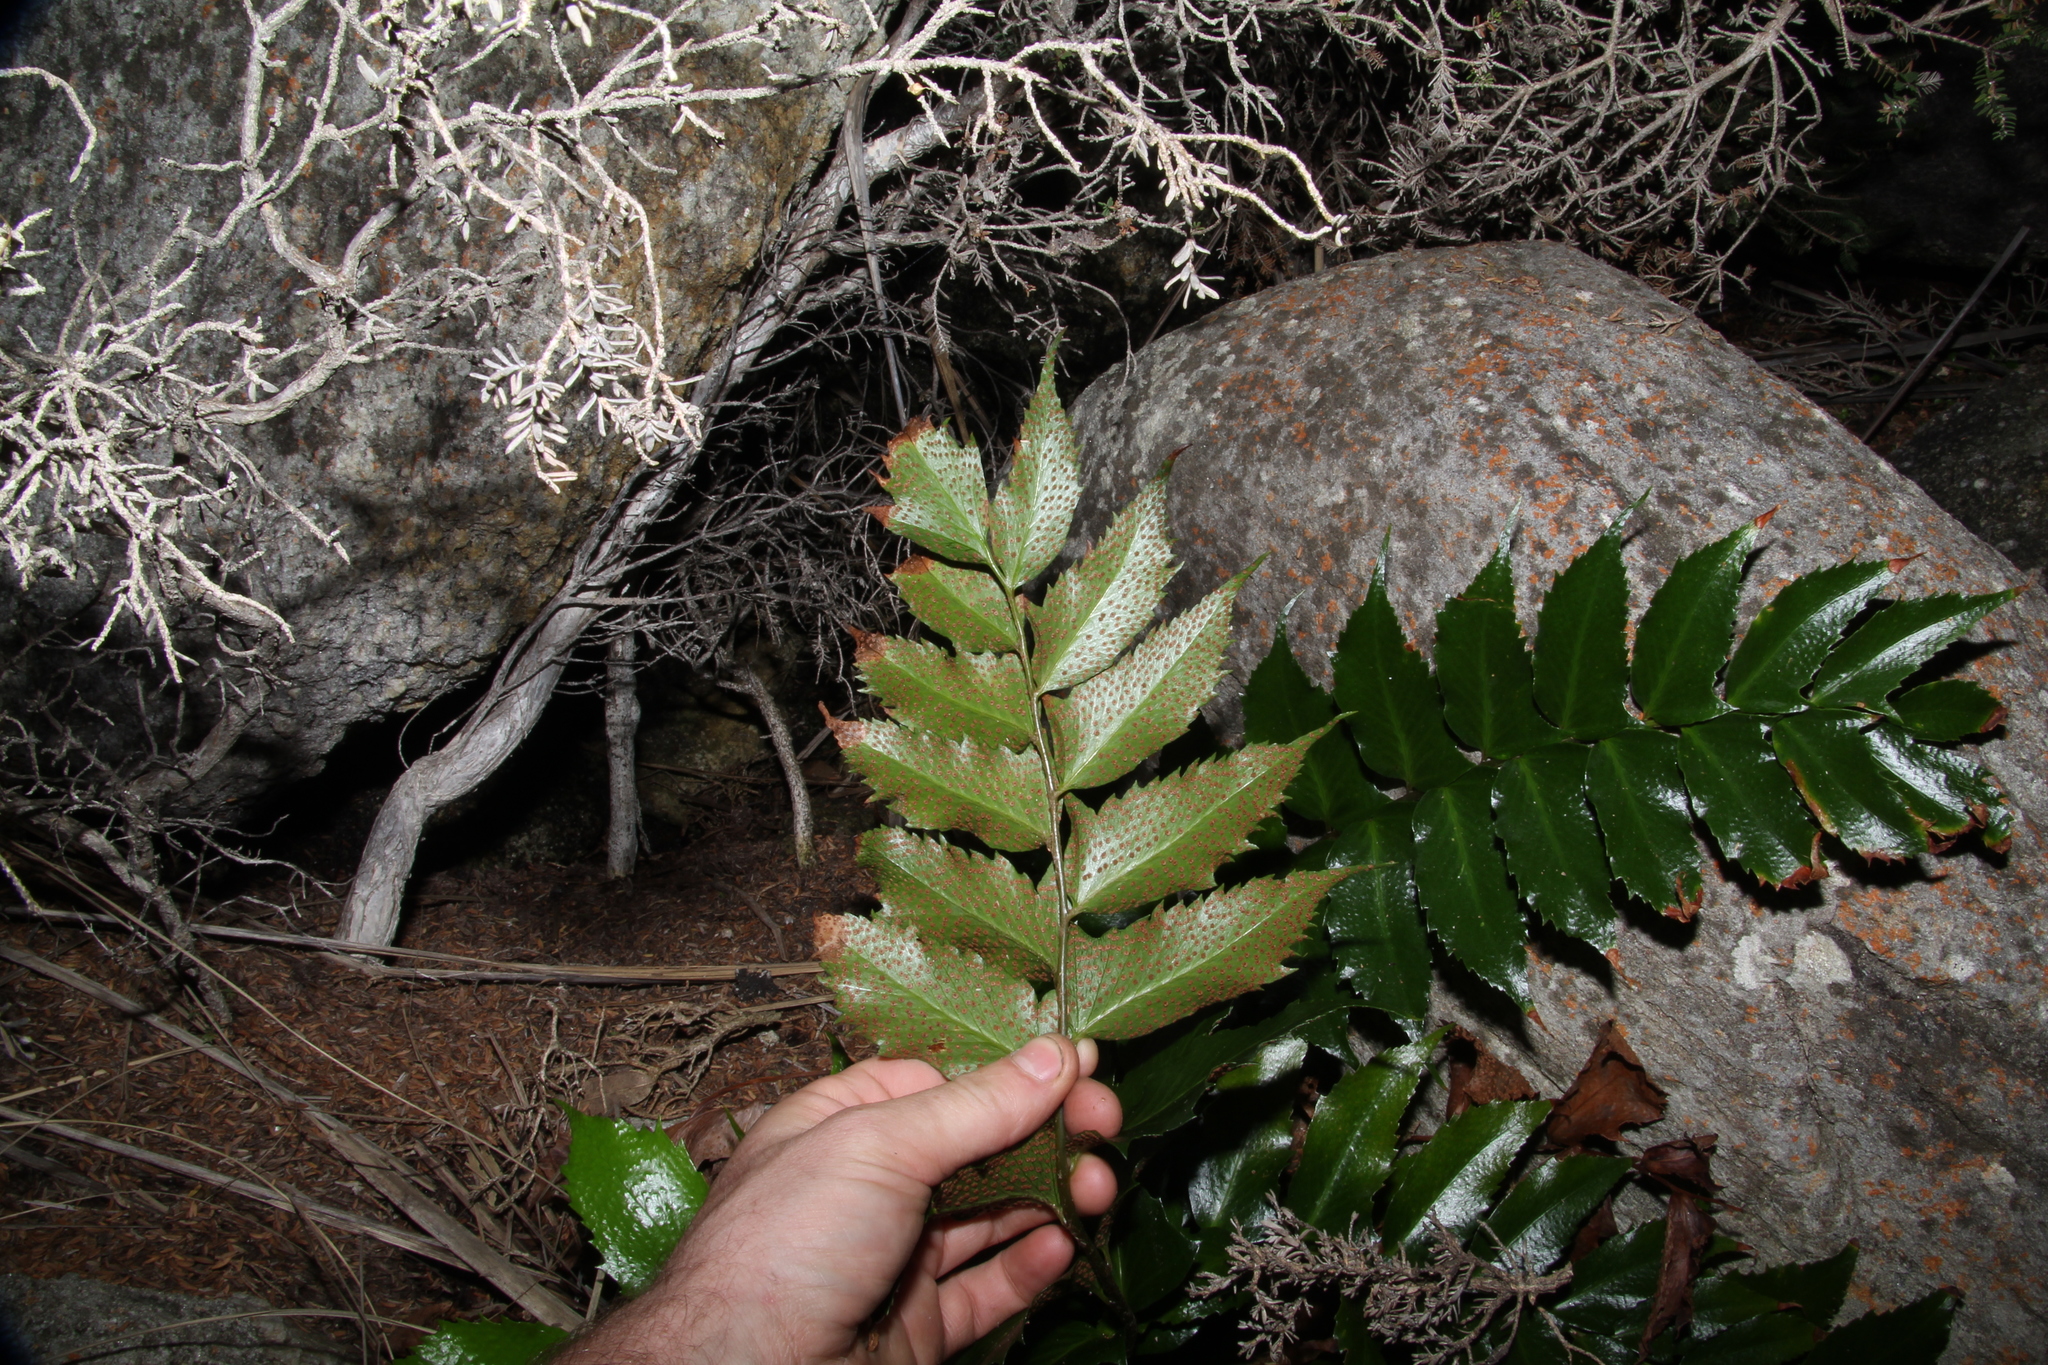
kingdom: Plantae
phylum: Tracheophyta
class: Polypodiopsida
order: Polypodiales
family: Dryopteridaceae
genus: Cyrtomium
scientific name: Cyrtomium falcatum
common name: House holly-fern
